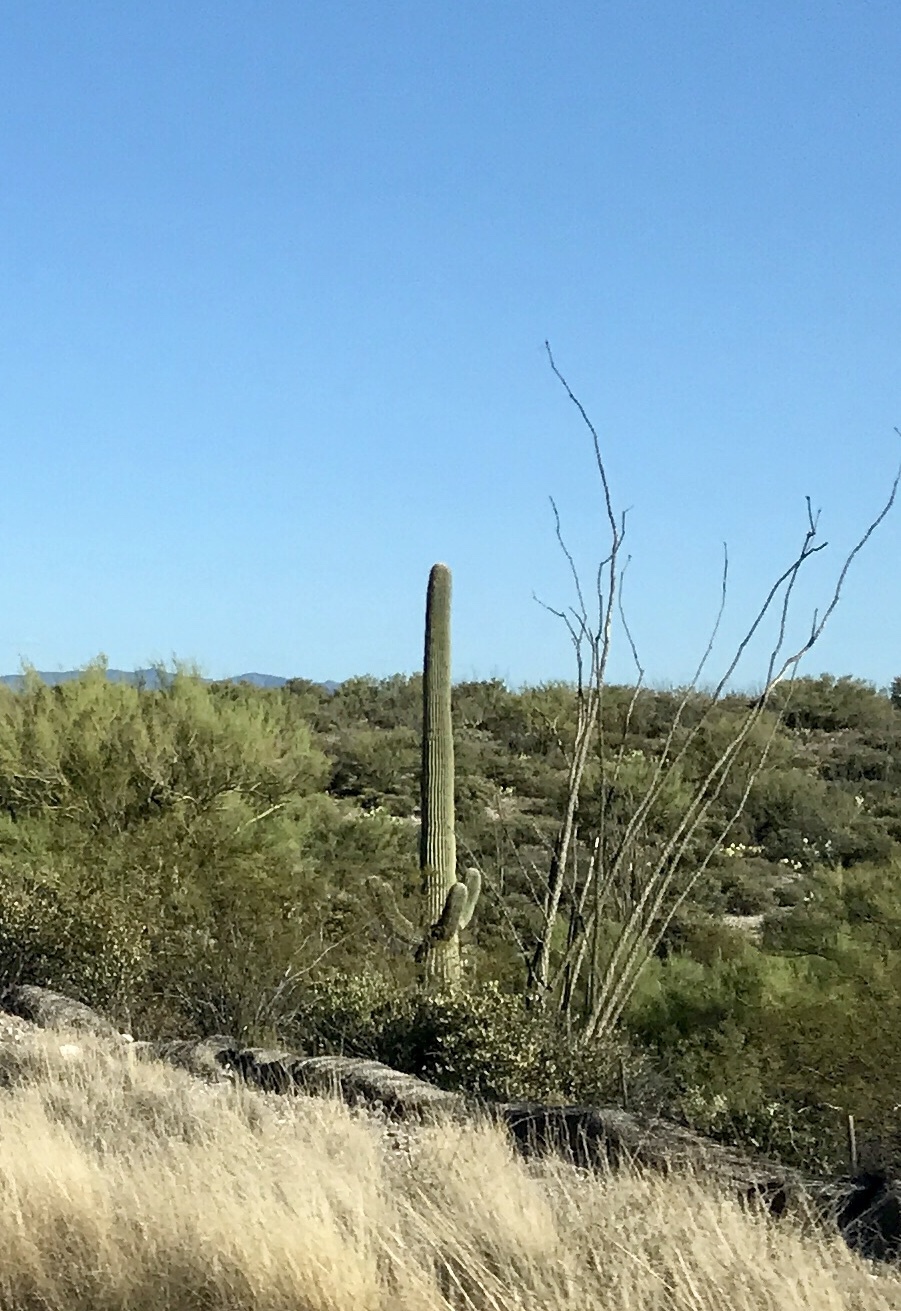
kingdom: Plantae
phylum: Tracheophyta
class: Magnoliopsida
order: Caryophyllales
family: Cactaceae
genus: Carnegiea
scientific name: Carnegiea gigantea
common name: Saguaro
